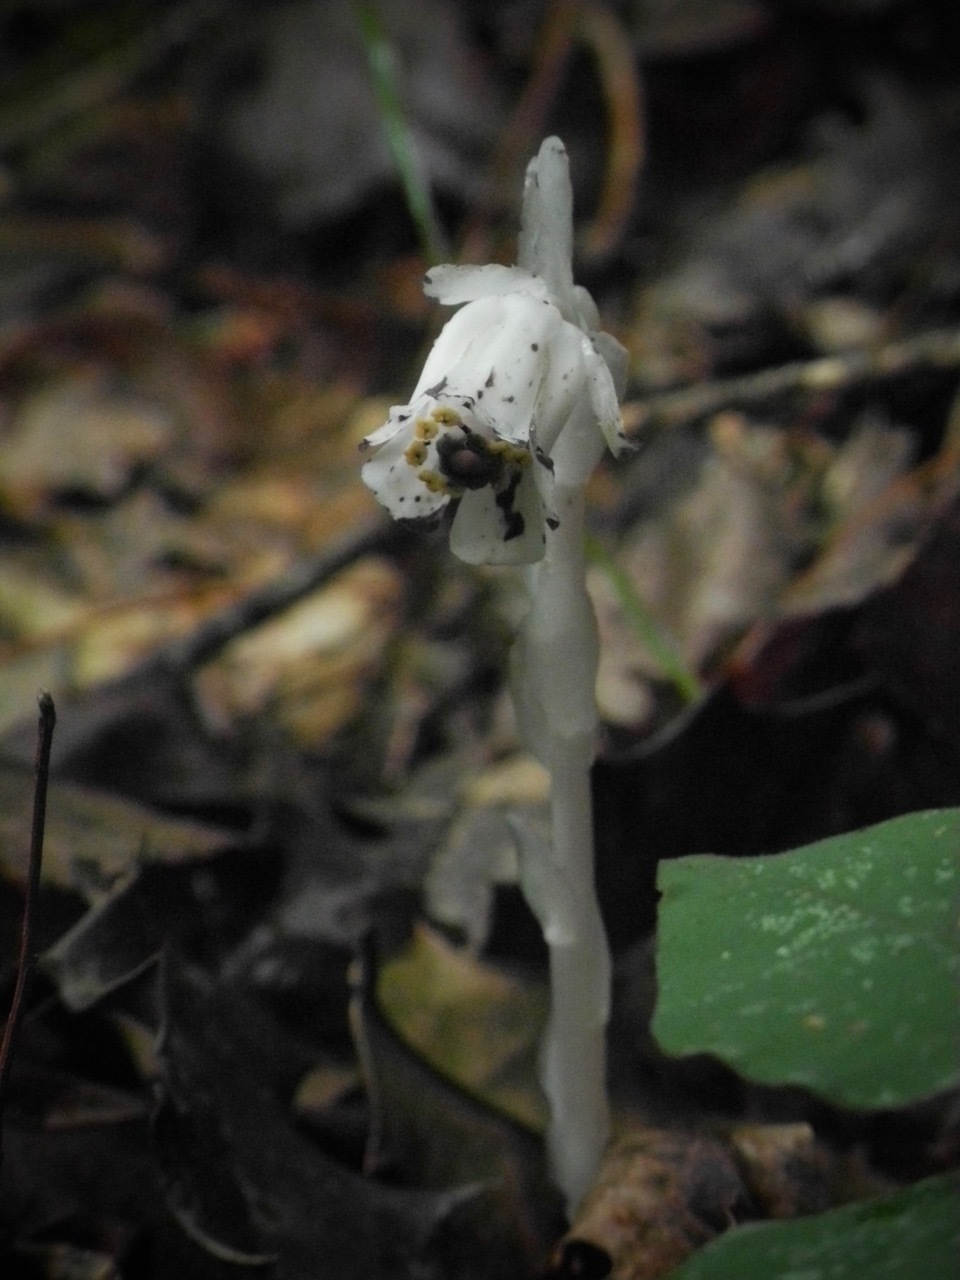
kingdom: Plantae
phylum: Tracheophyta
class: Magnoliopsida
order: Ericales
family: Ericaceae
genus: Monotropa
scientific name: Monotropa uniflora
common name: Convulsion root
